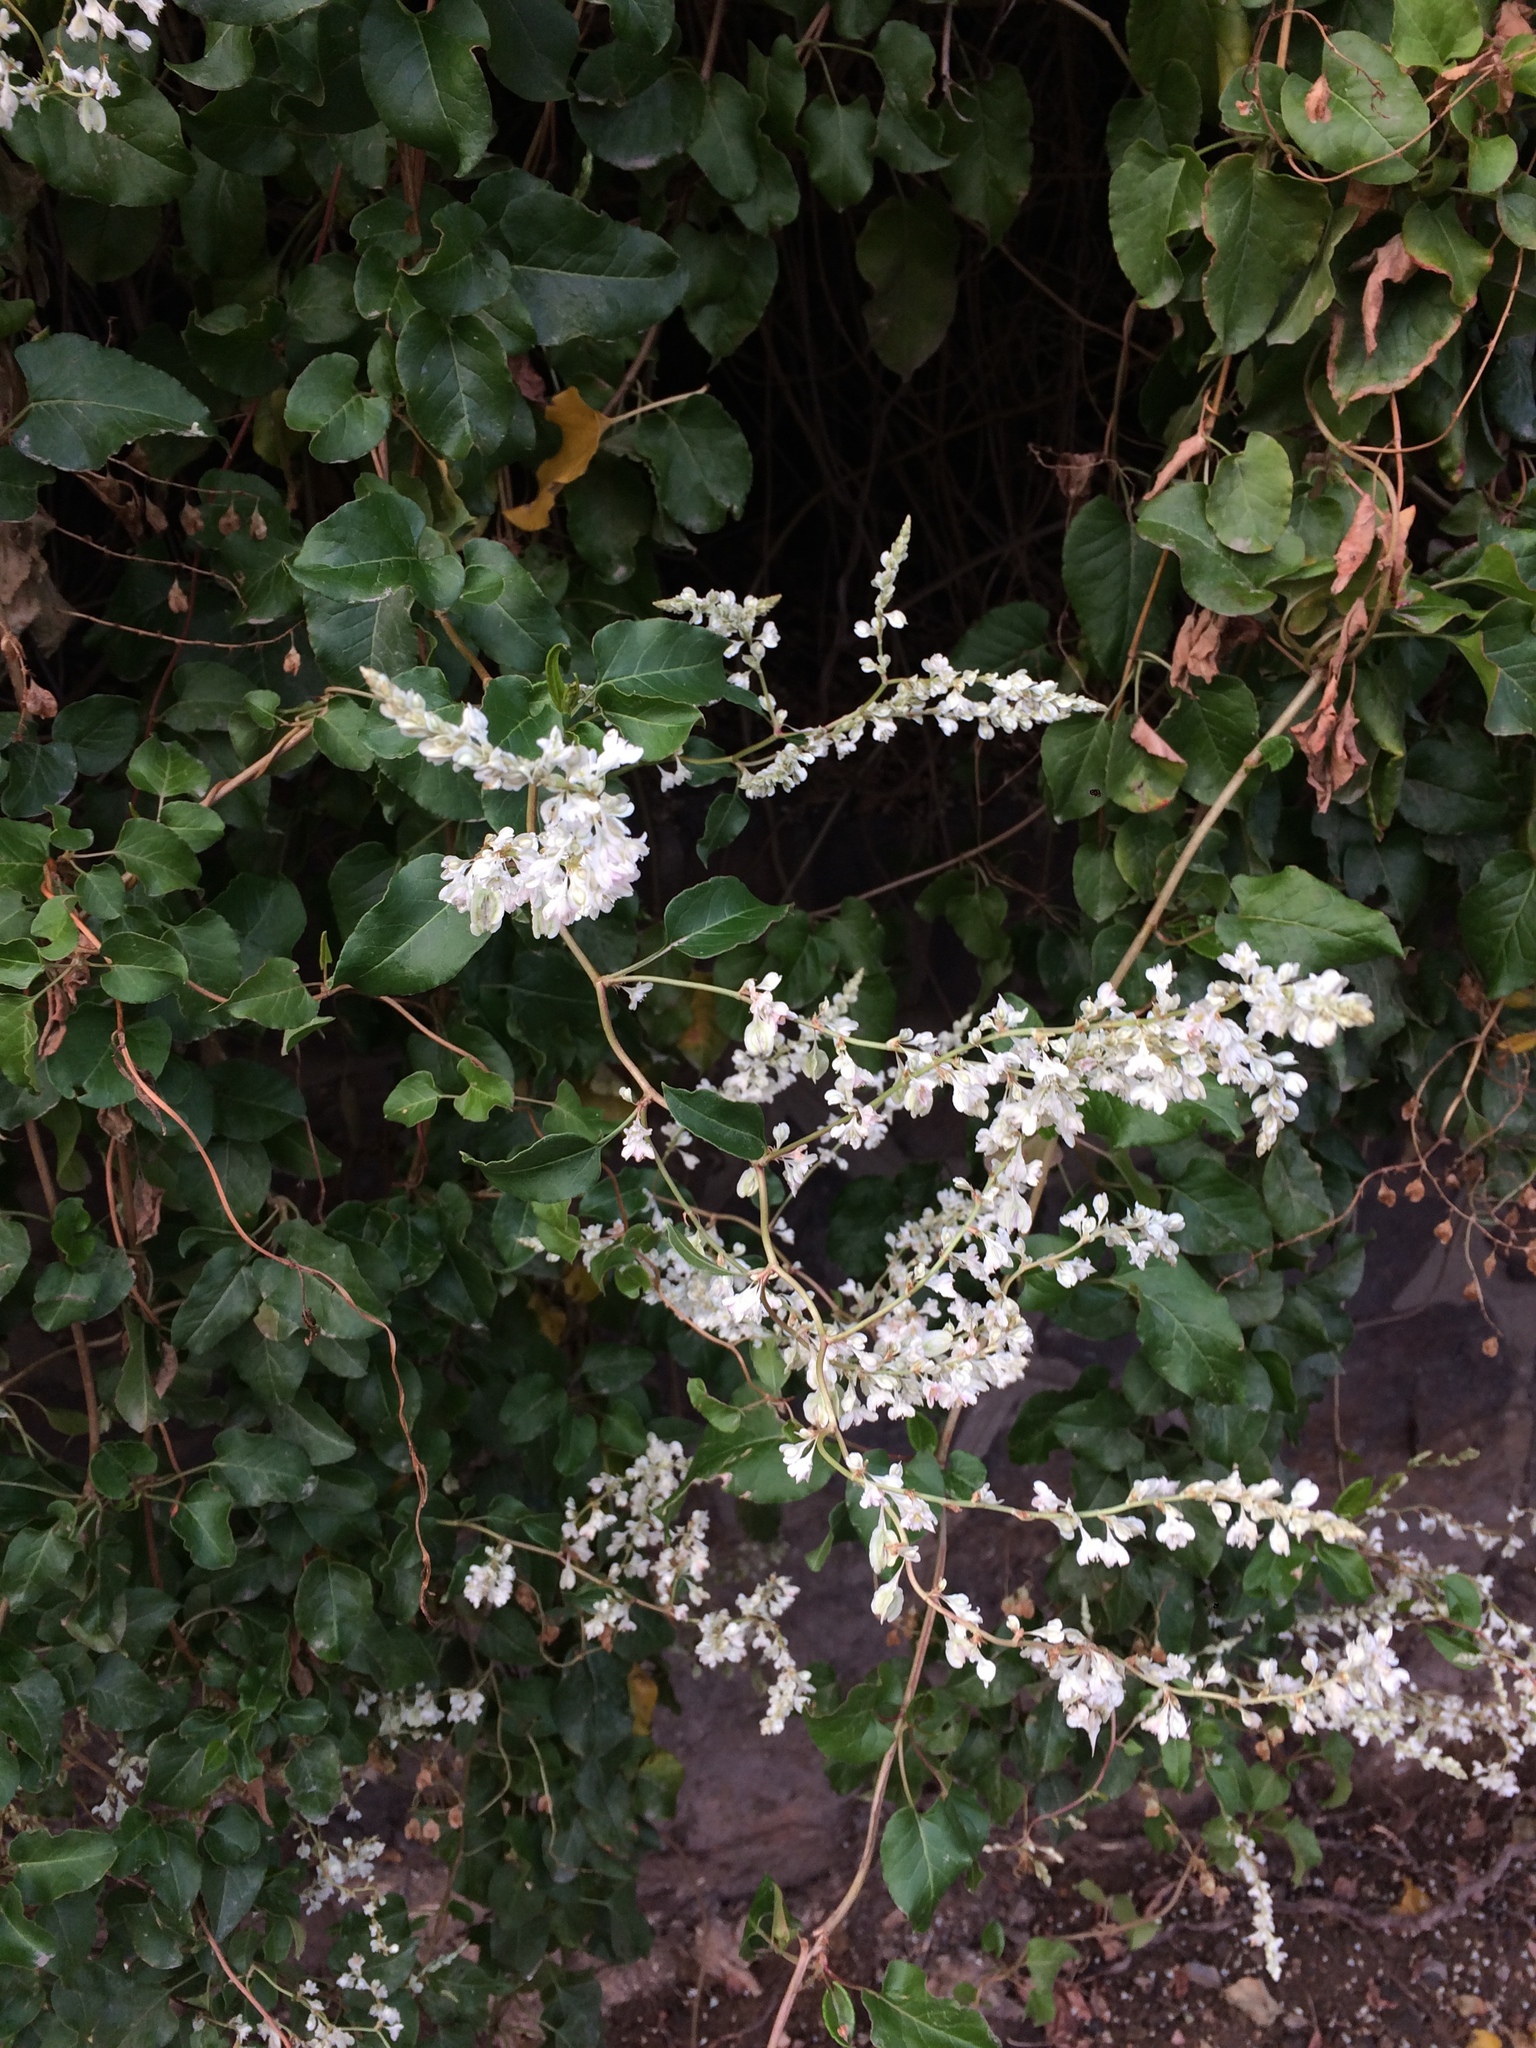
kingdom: Plantae
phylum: Tracheophyta
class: Magnoliopsida
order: Caryophyllales
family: Polygonaceae
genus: Fallopia
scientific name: Fallopia baldschuanica
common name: Russian-vine
